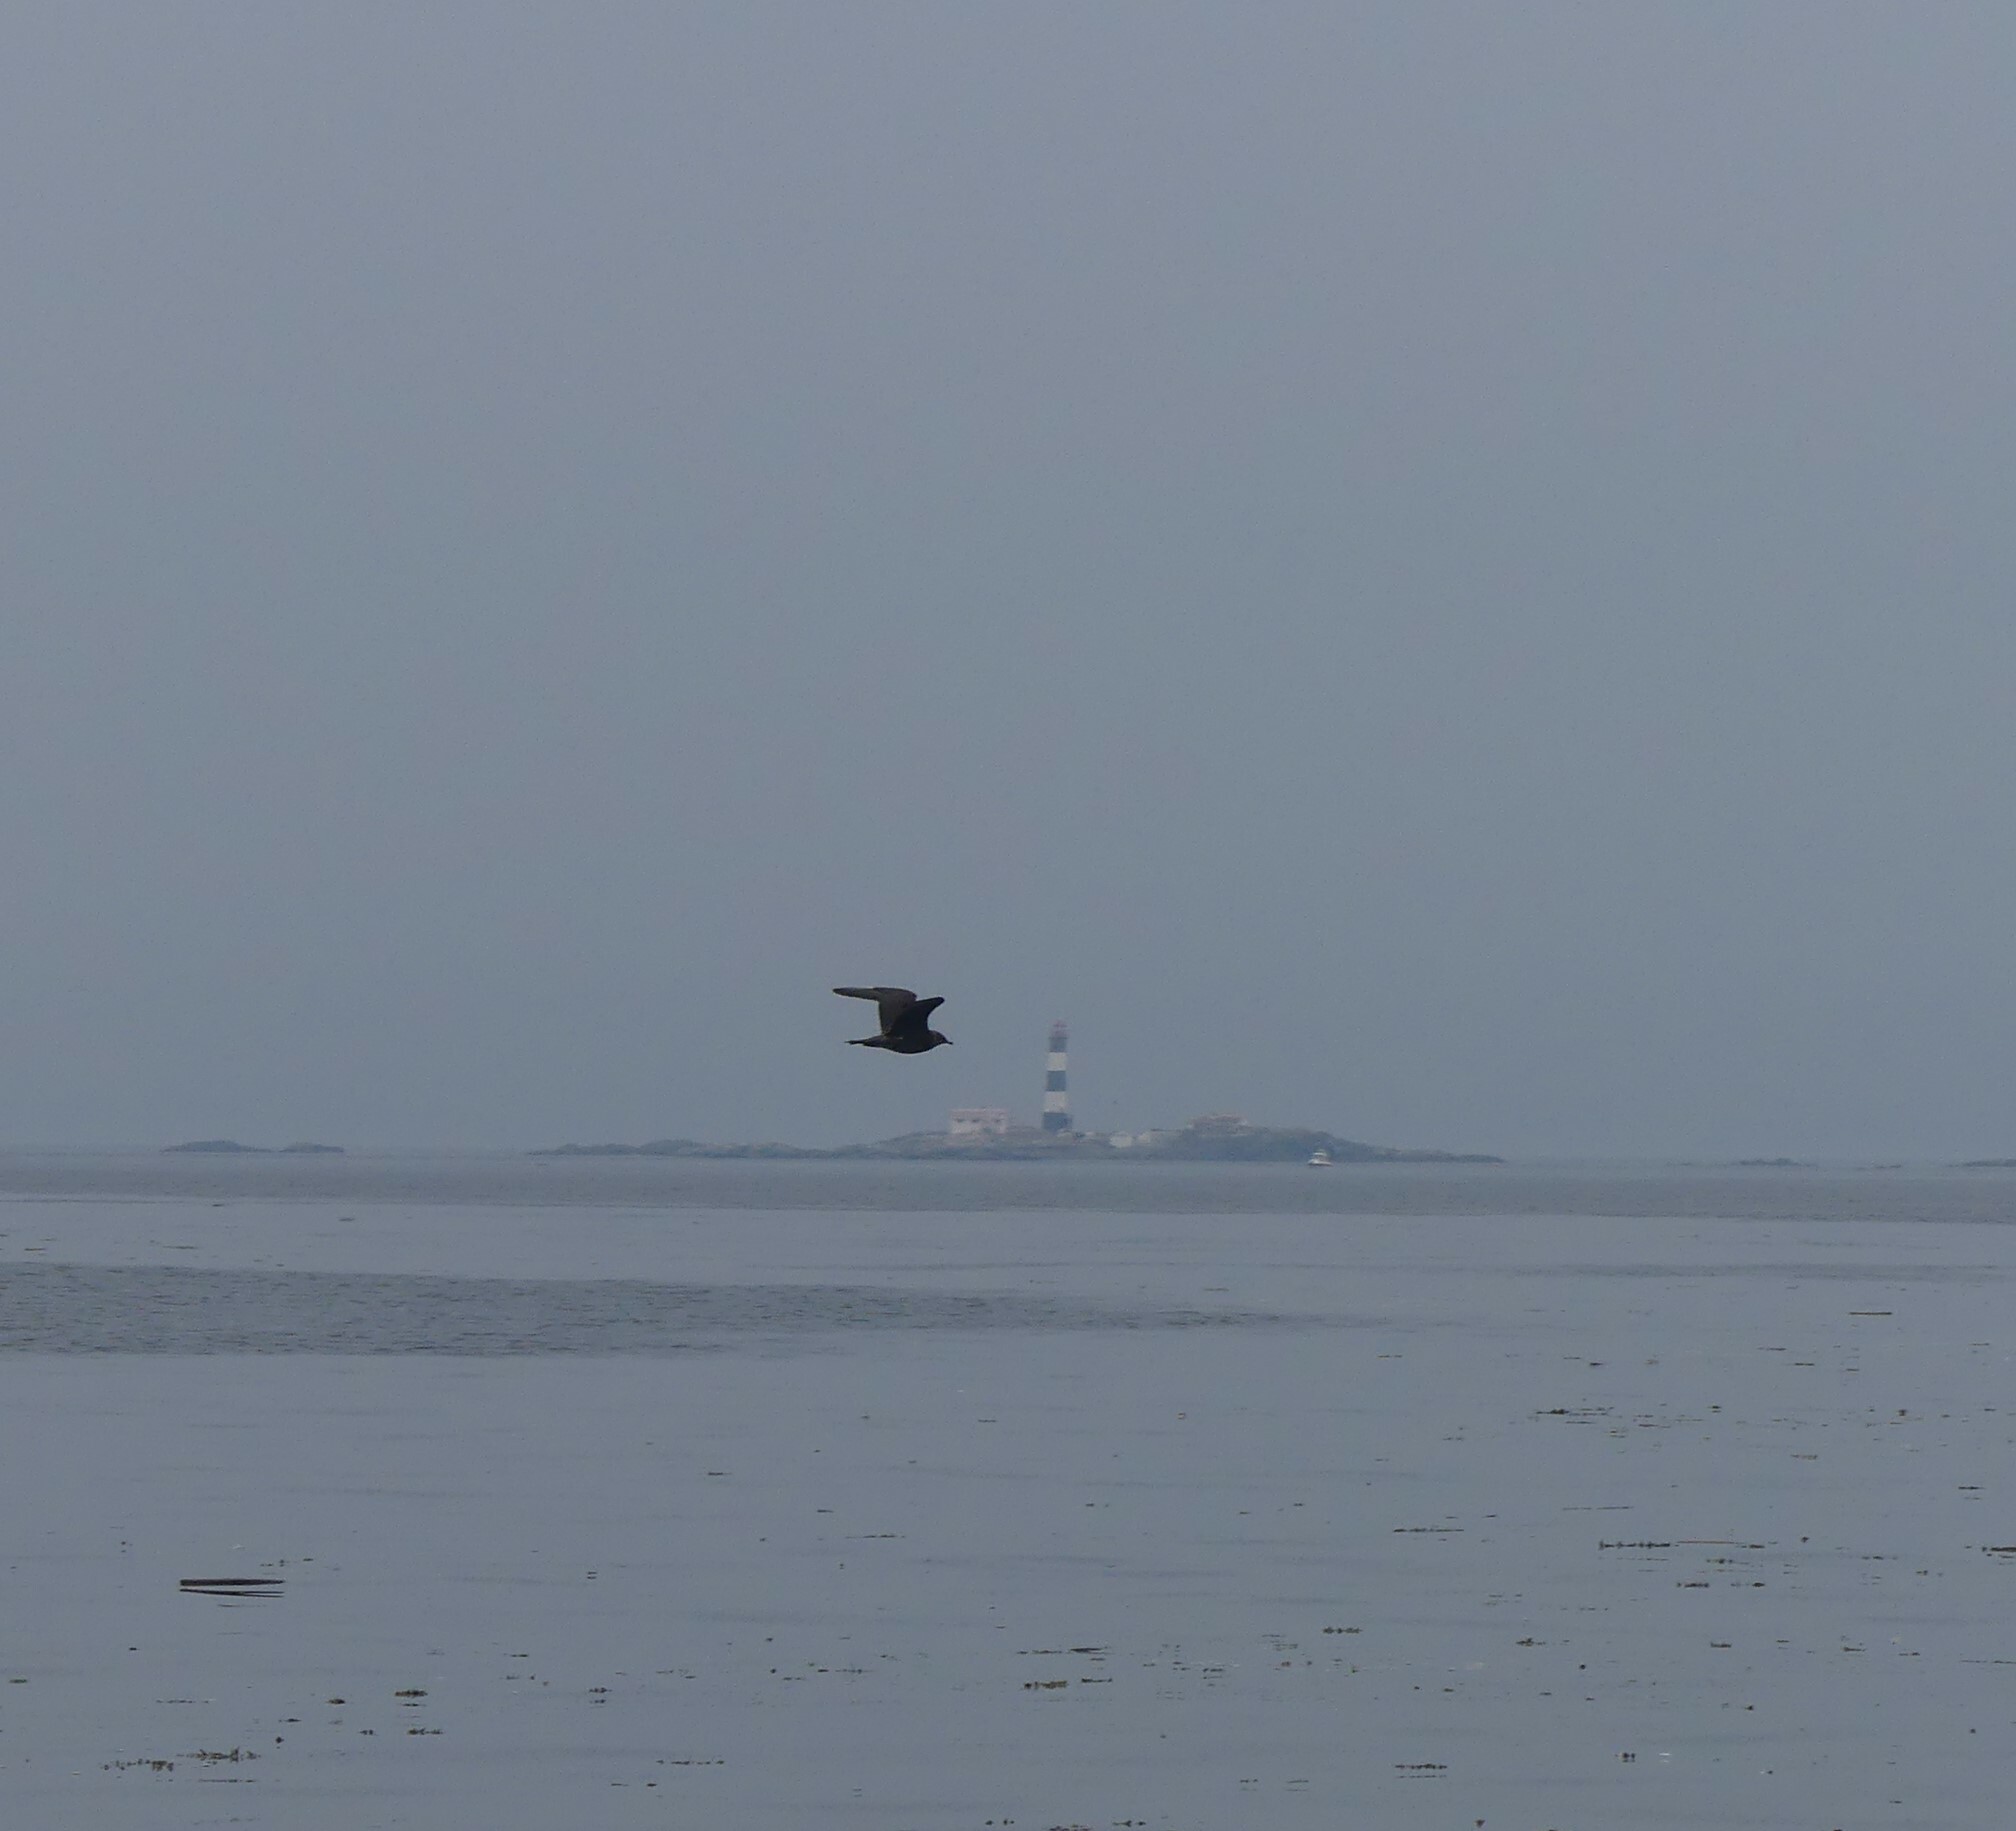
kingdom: Animalia
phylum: Chordata
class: Aves
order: Charadriiformes
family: Stercorariidae
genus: Stercorarius
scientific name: Stercorarius longicaudus
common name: Long-tailed jaeger
